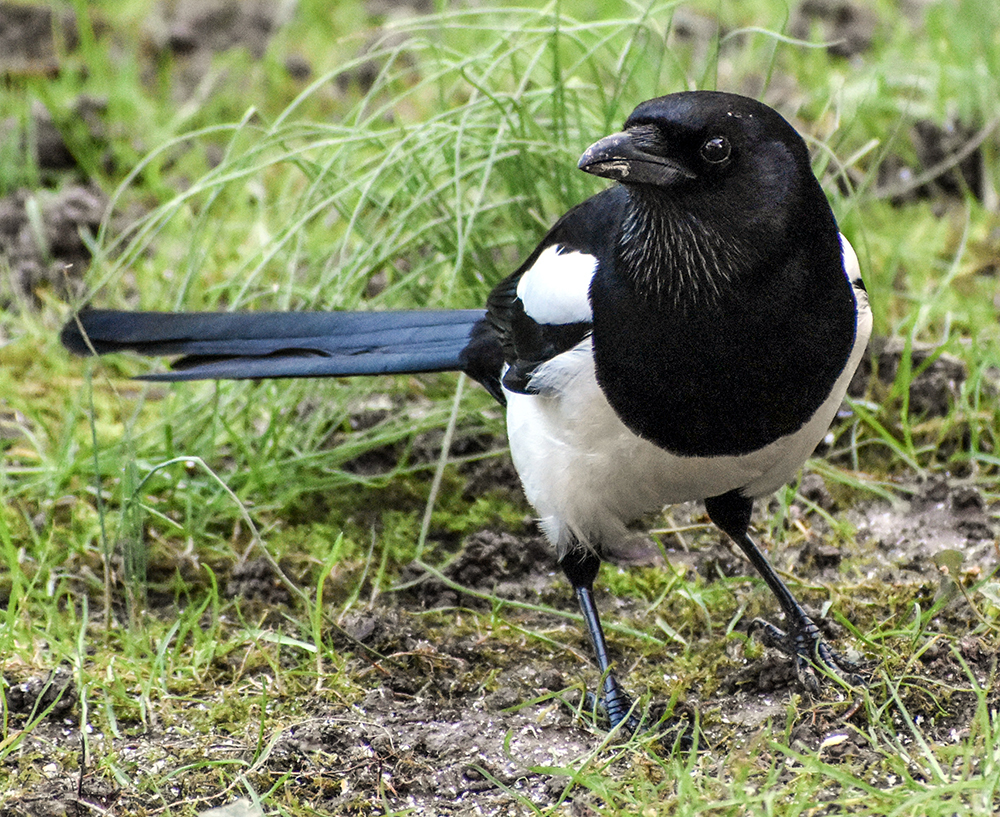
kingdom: Animalia
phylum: Chordata
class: Aves
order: Passeriformes
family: Corvidae
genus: Pica
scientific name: Pica pica
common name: Eurasian magpie
